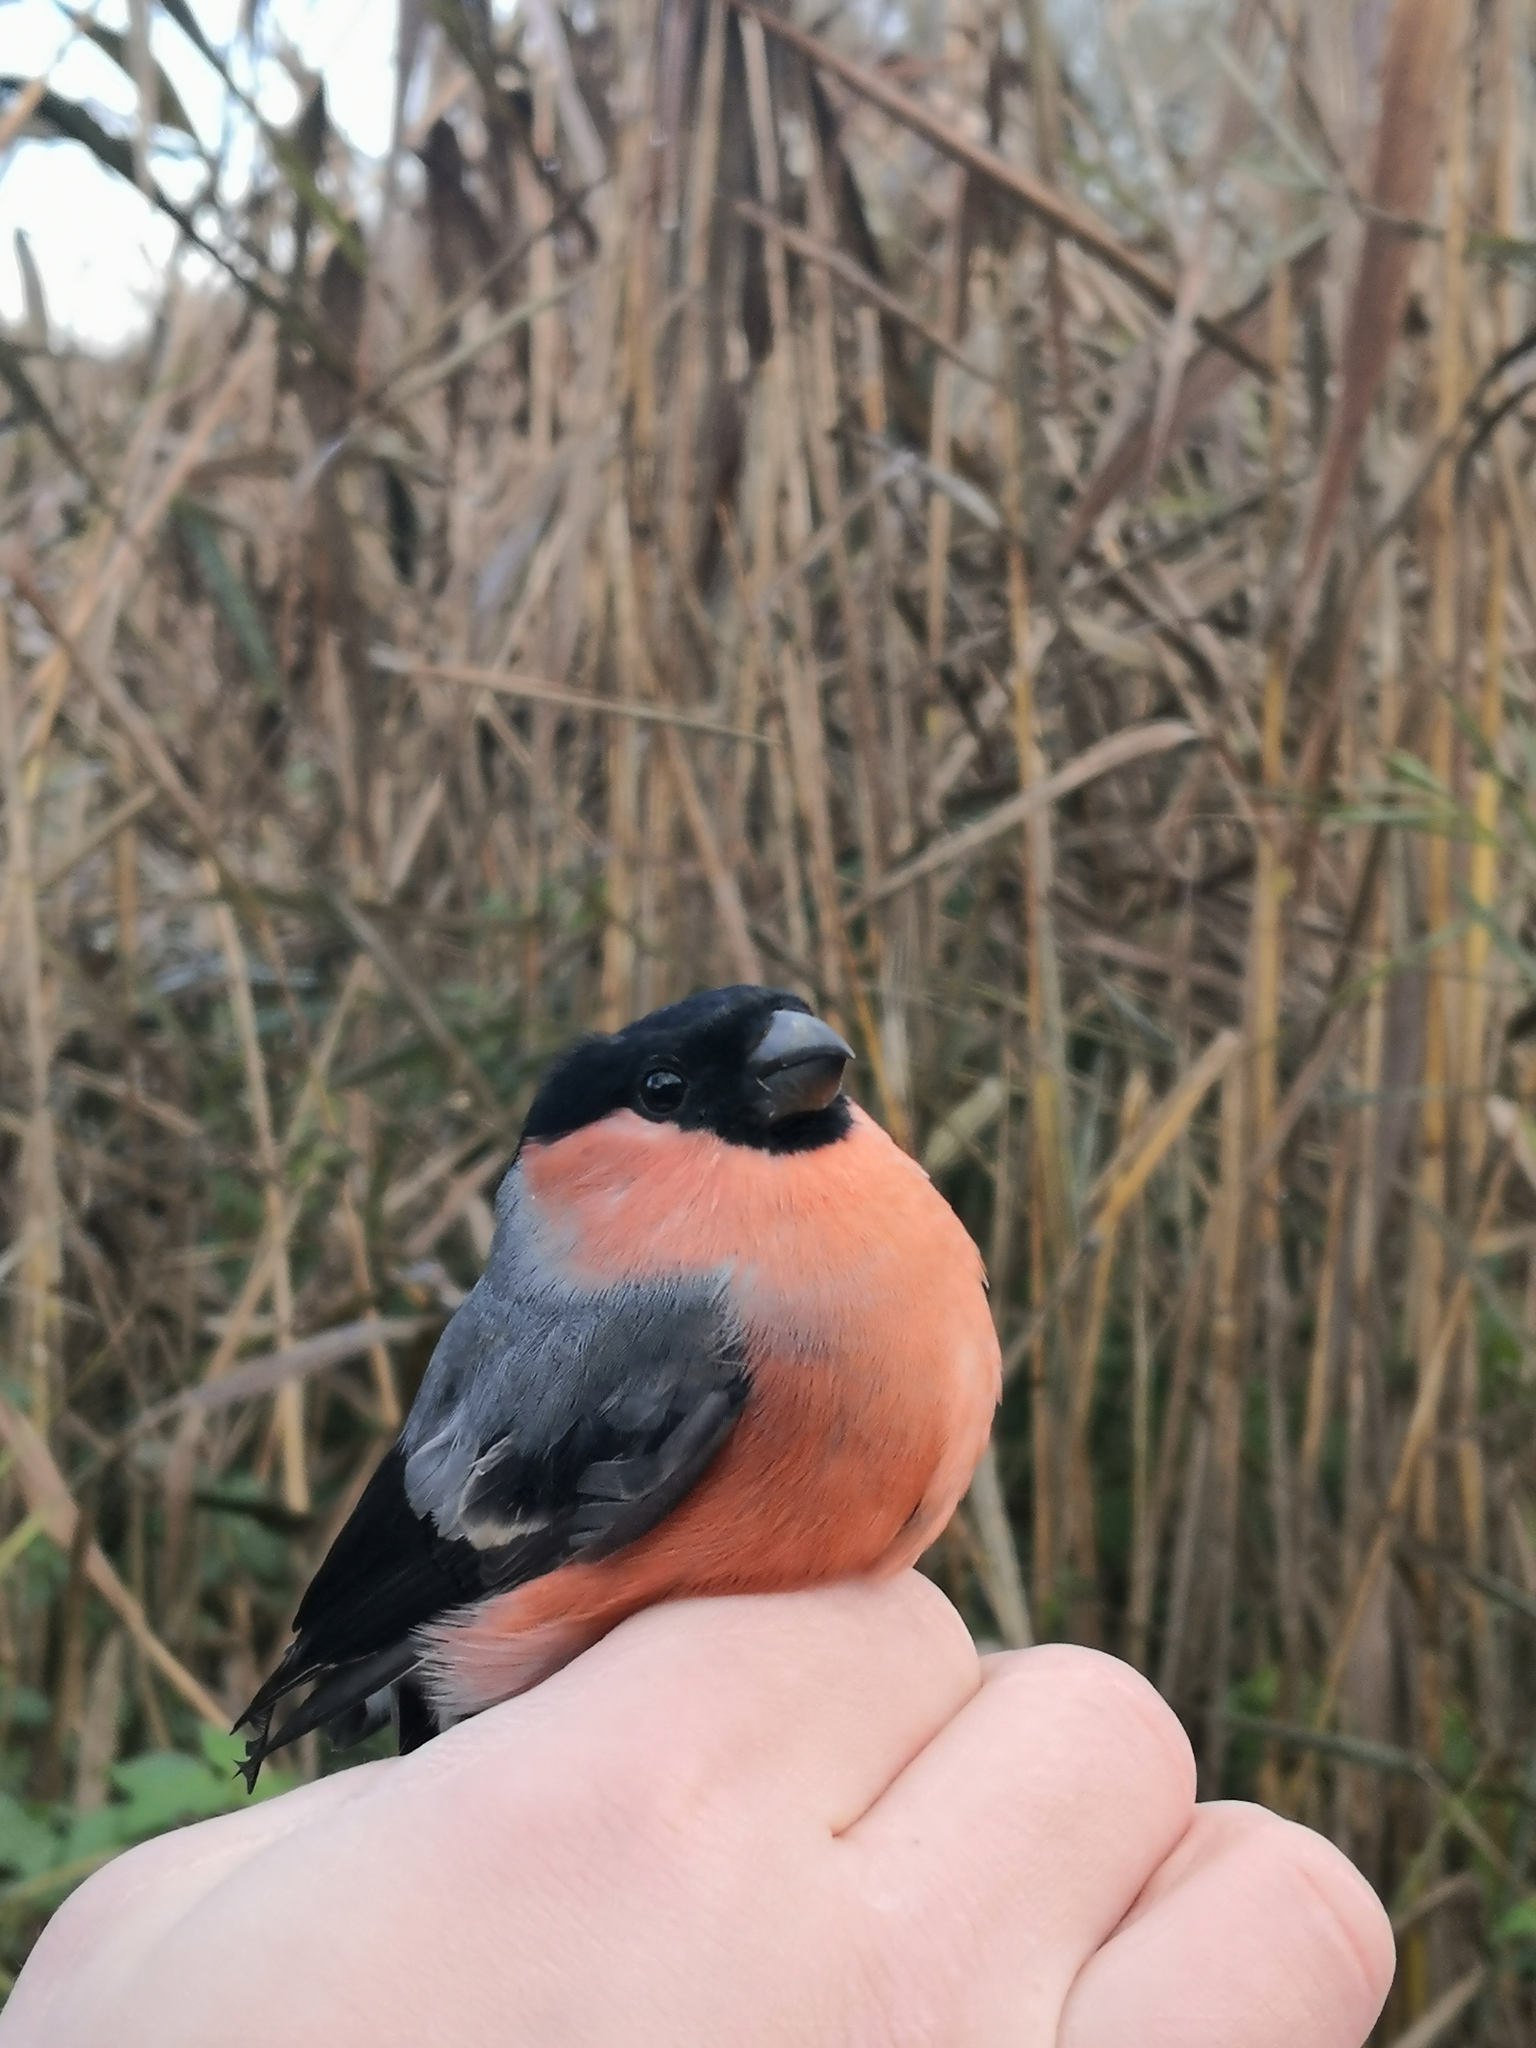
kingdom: Animalia
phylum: Chordata
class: Aves
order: Passeriformes
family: Fringillidae
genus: Pyrrhula
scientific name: Pyrrhula pyrrhula
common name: Eurasian bullfinch
